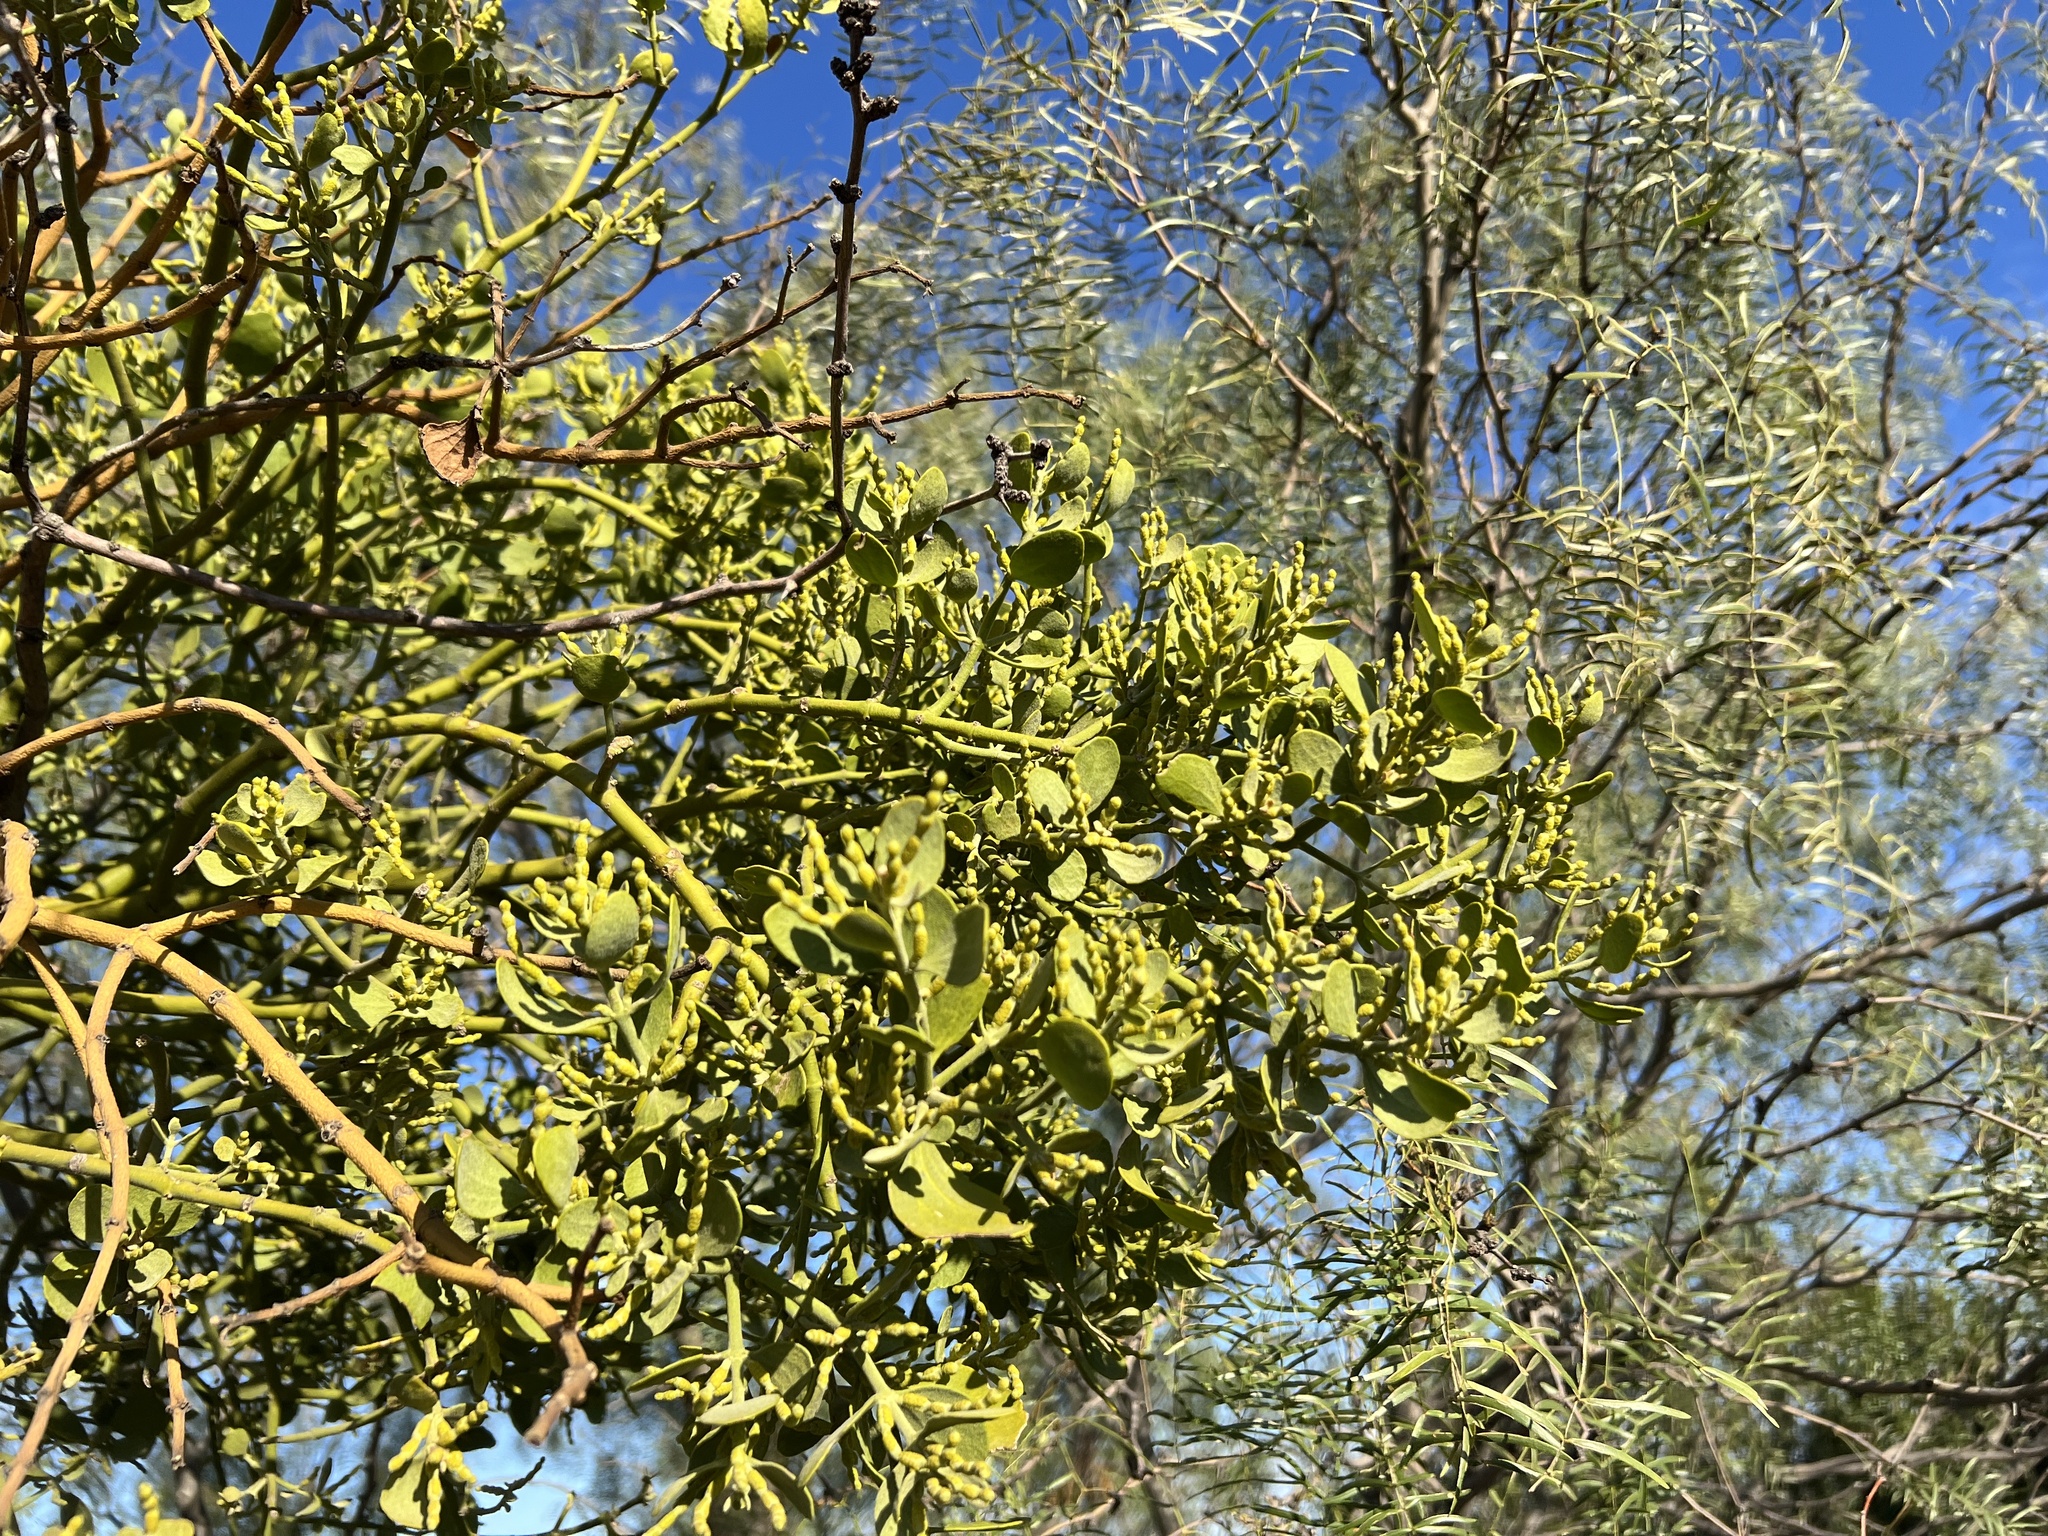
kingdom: Plantae
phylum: Tracheophyta
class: Magnoliopsida
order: Santalales
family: Viscaceae
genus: Phoradendron
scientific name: Phoradendron leucarpum
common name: Pacific mistletoe
